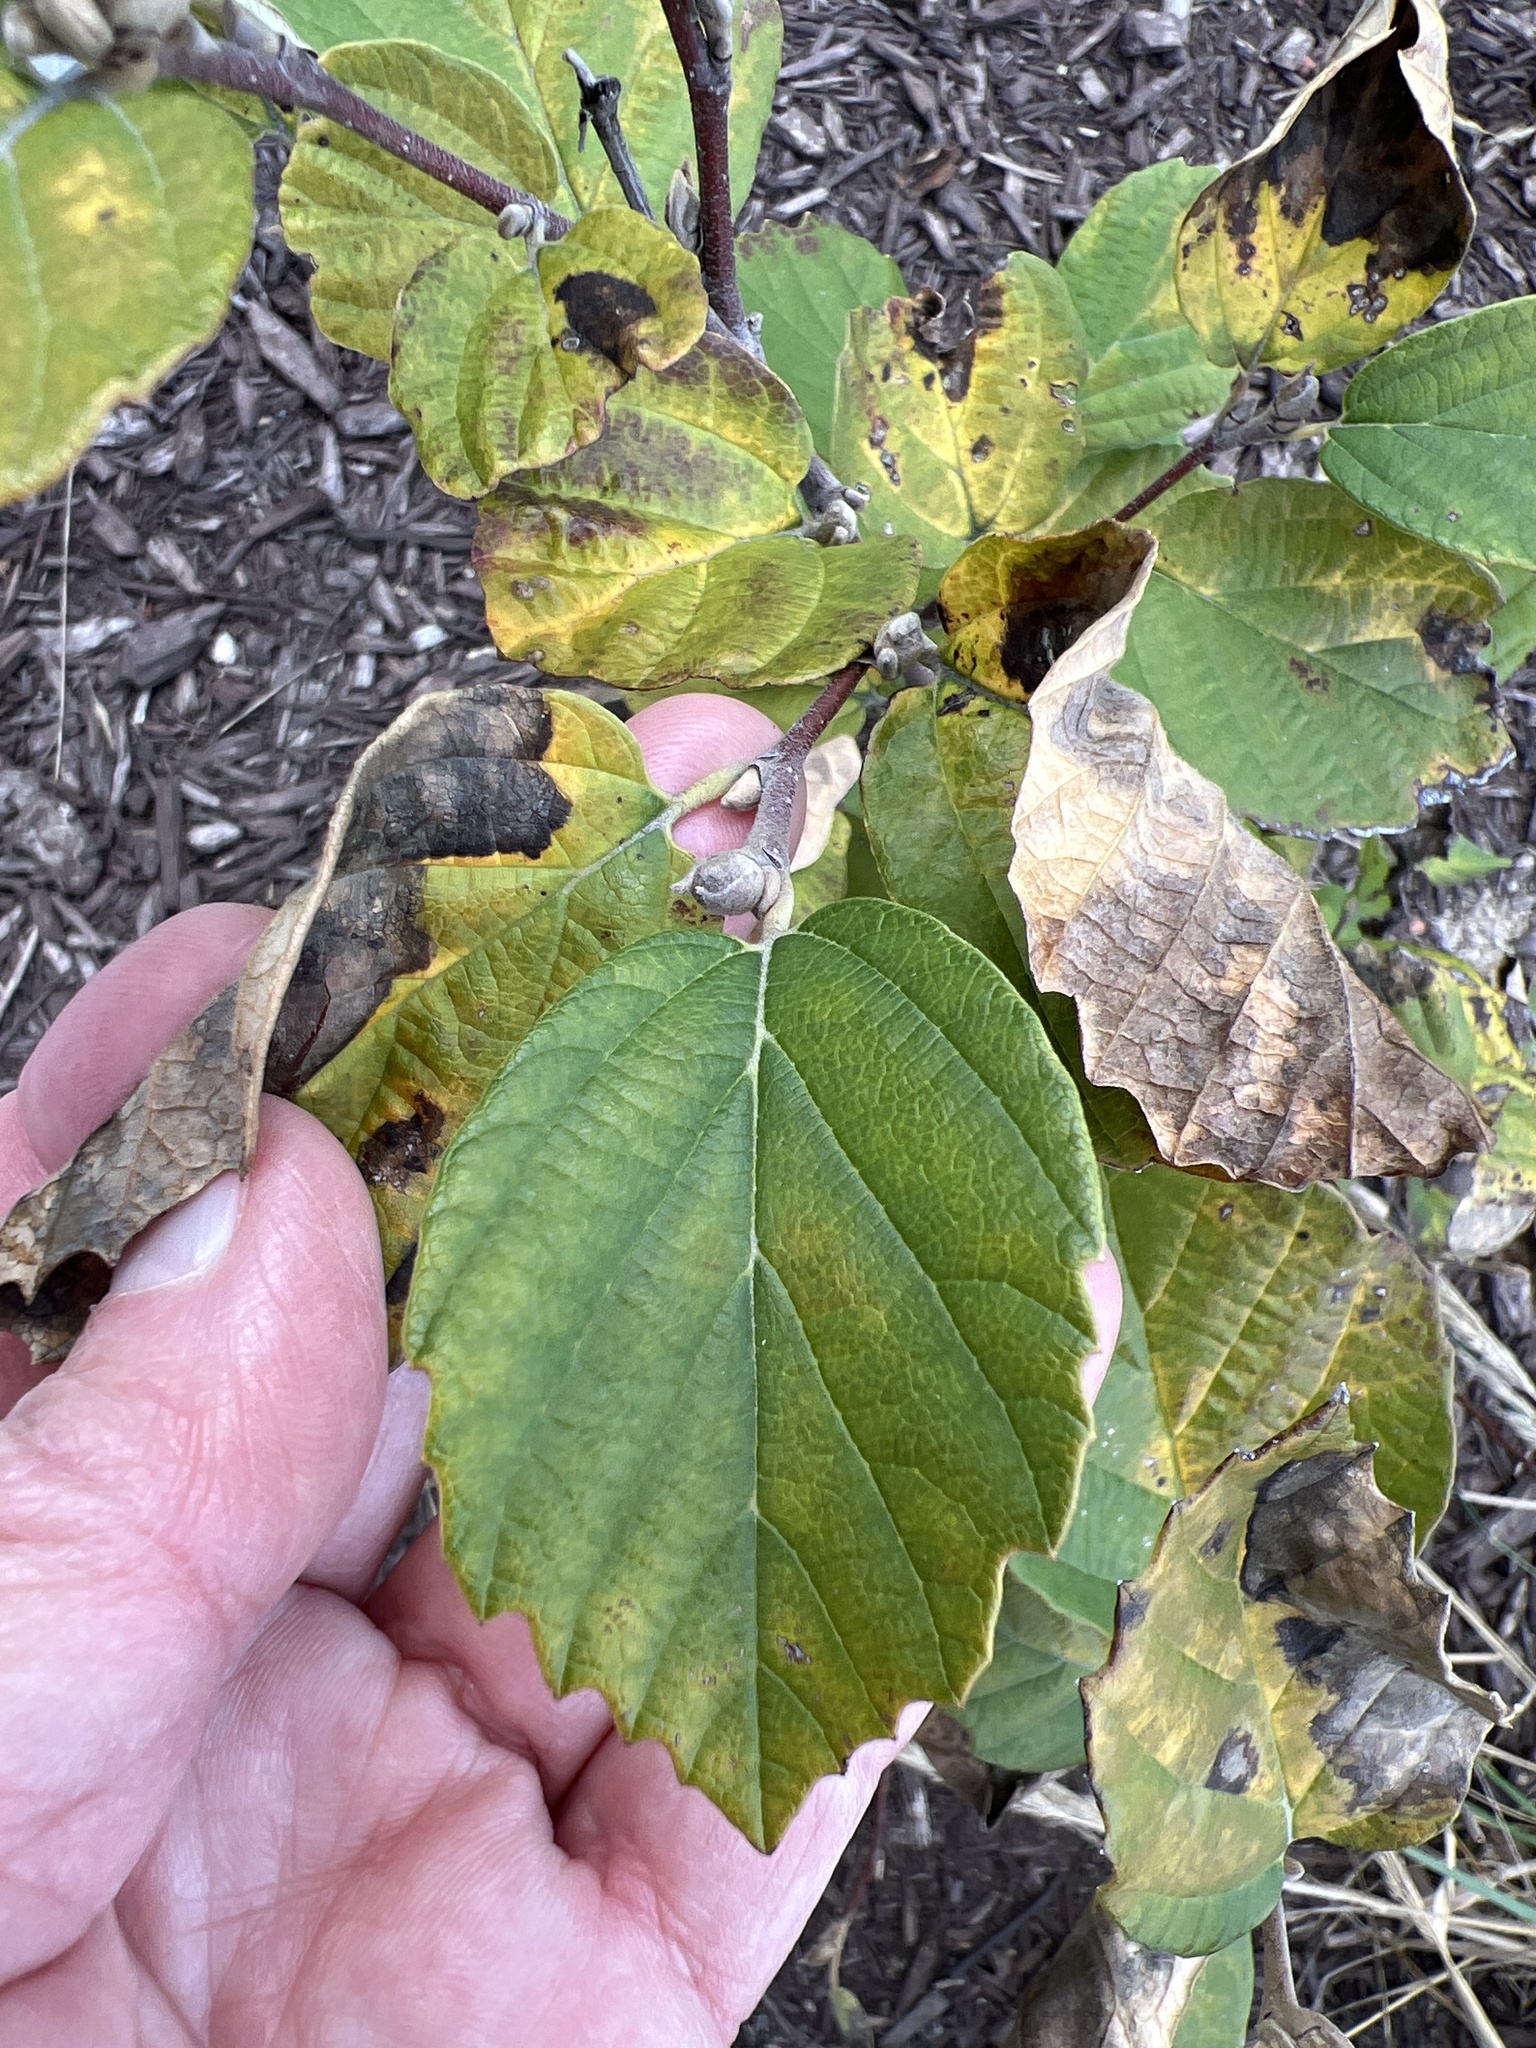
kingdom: Plantae
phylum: Tracheophyta
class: Magnoliopsida
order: Saxifragales
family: Hamamelidaceae
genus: Fothergilla
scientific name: Fothergilla gardenii
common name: Dwarf witch-alder
